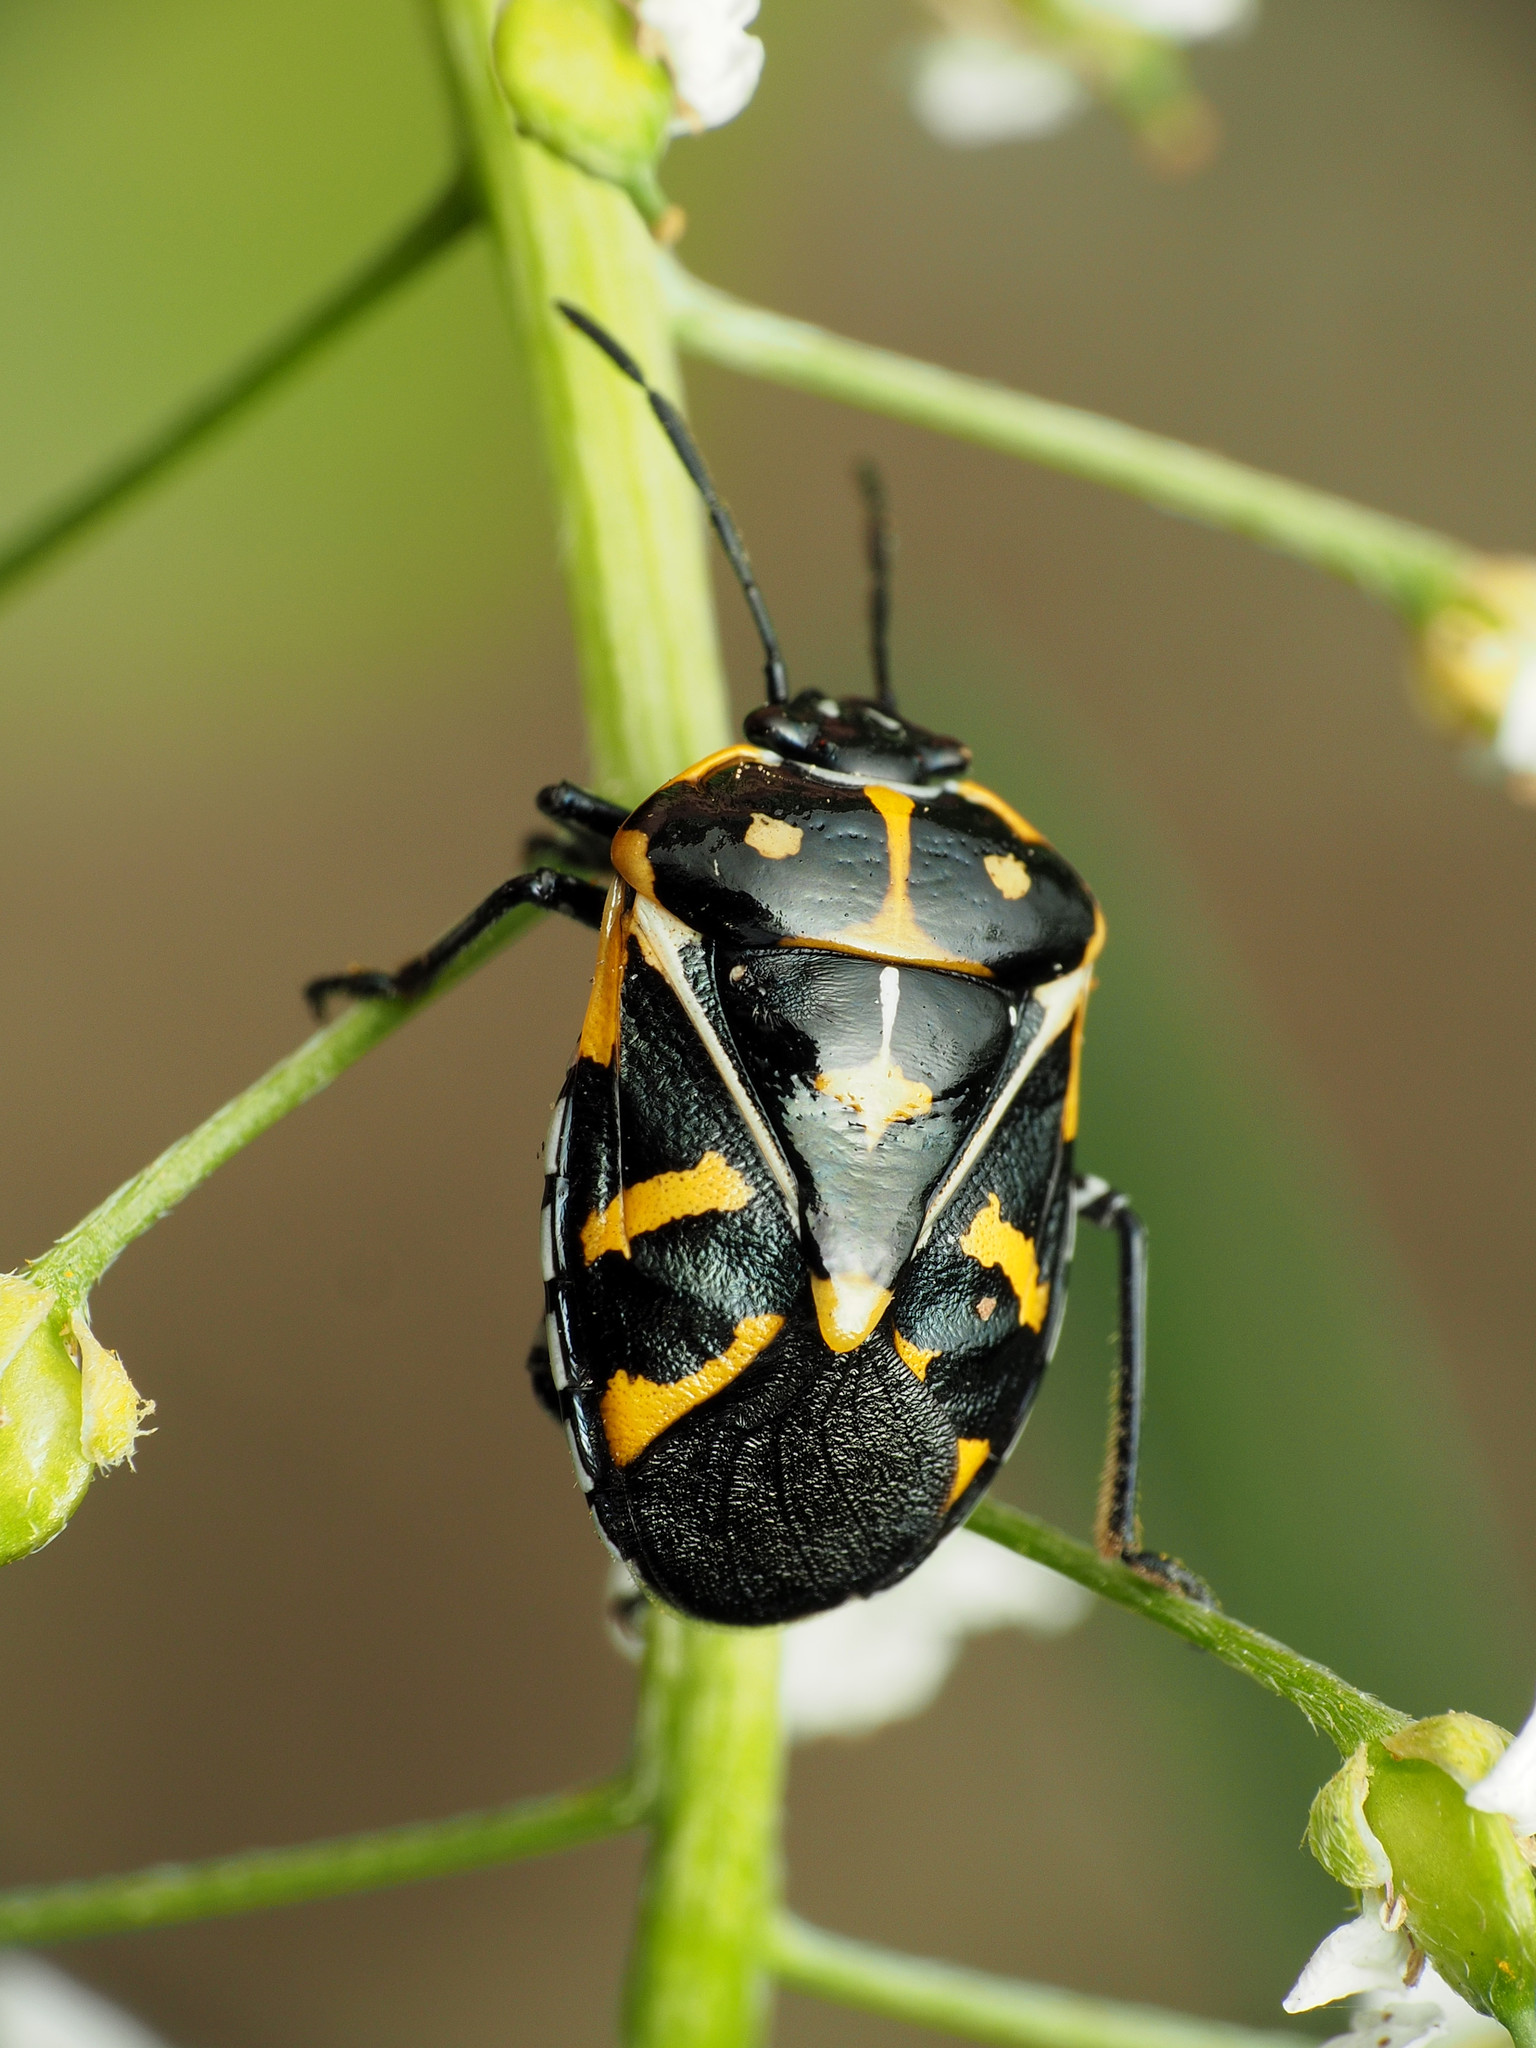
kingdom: Animalia
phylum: Arthropoda
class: Insecta
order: Hemiptera
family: Pentatomidae
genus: Murgantia
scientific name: Murgantia histrionica
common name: Harlequin bug
